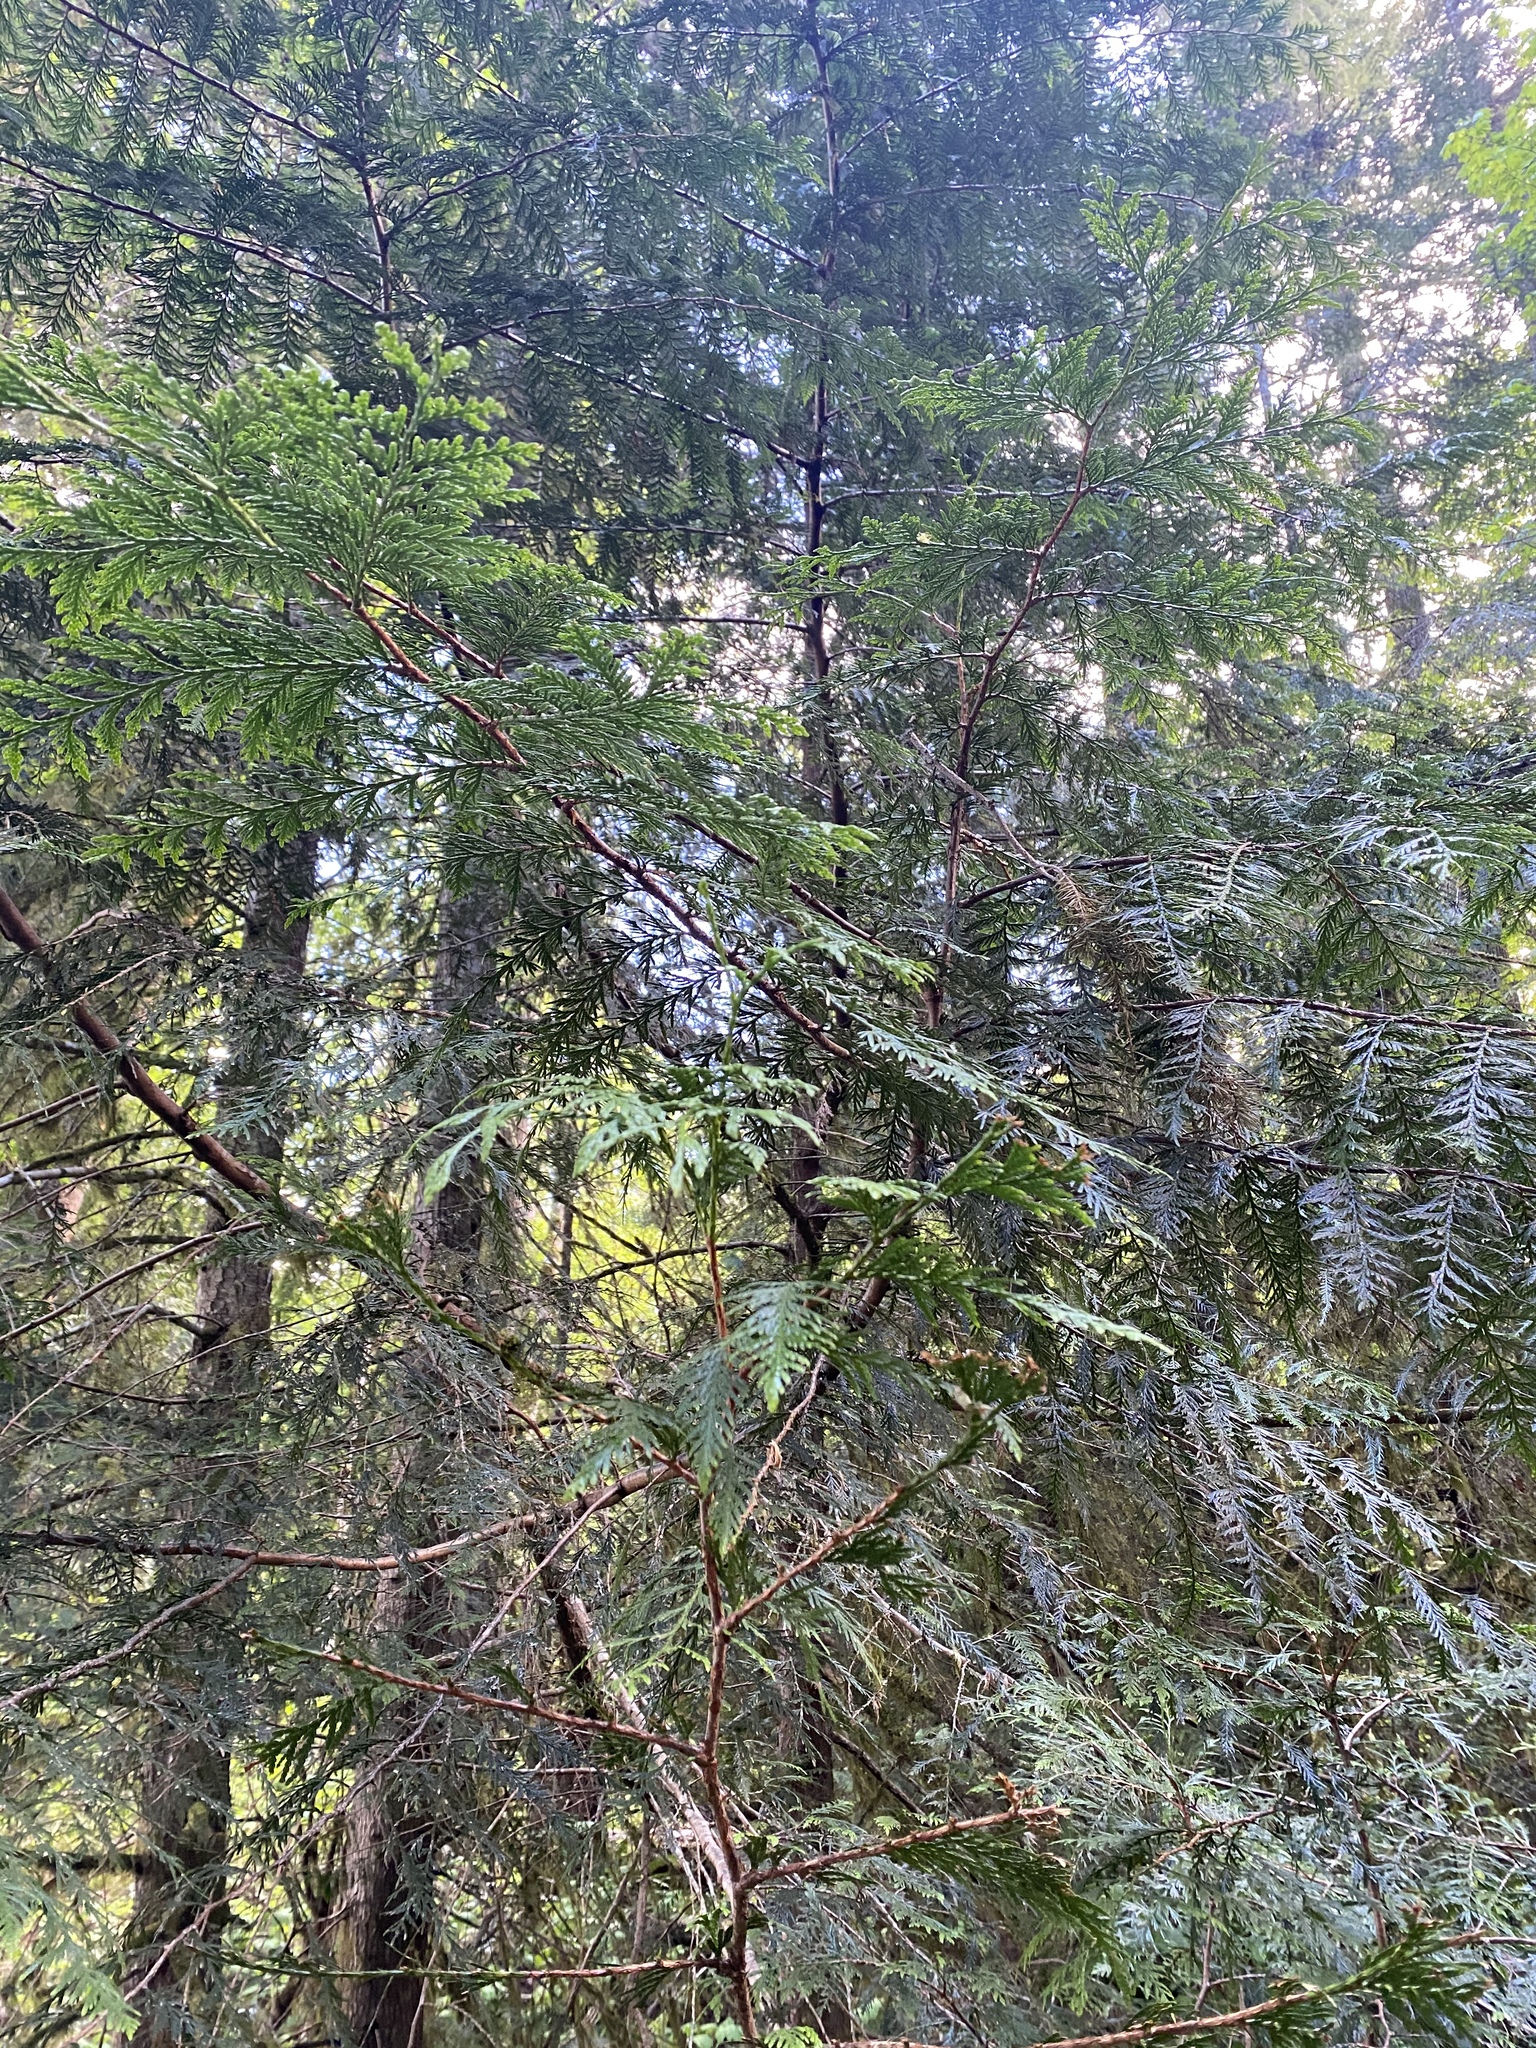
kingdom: Plantae
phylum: Tracheophyta
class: Pinopsida
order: Pinales
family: Cupressaceae
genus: Thuja
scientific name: Thuja plicata
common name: Western red-cedar
